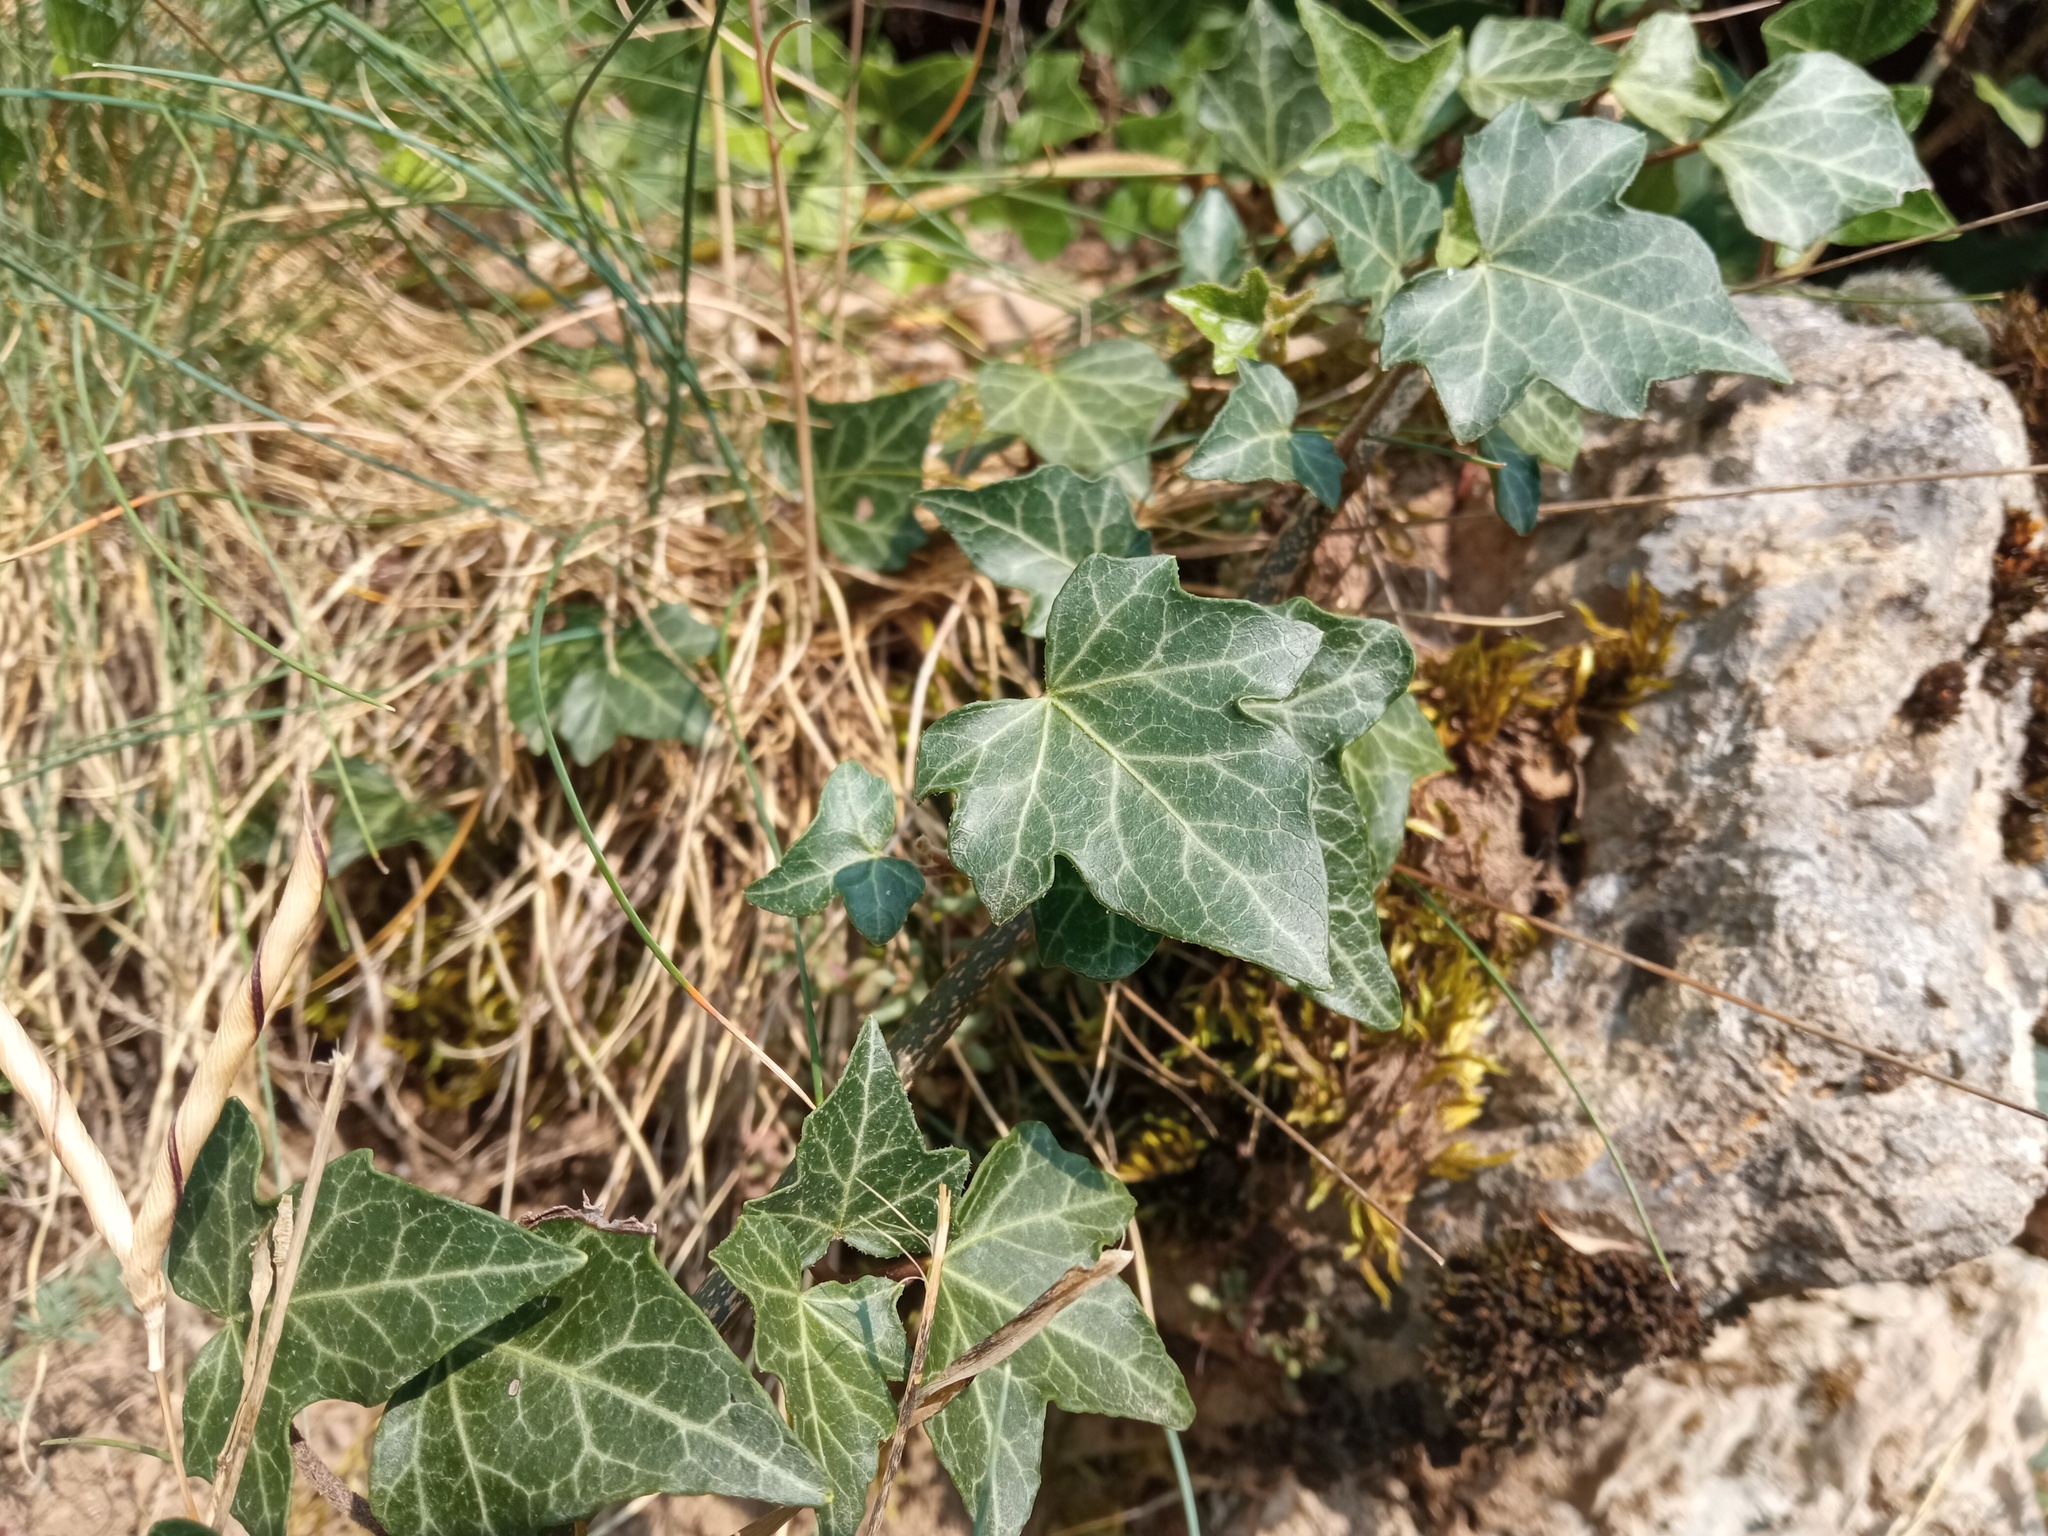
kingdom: Plantae
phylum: Tracheophyta
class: Magnoliopsida
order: Apiales
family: Araliaceae
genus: Hedera
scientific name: Hedera helix
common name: Ivy
